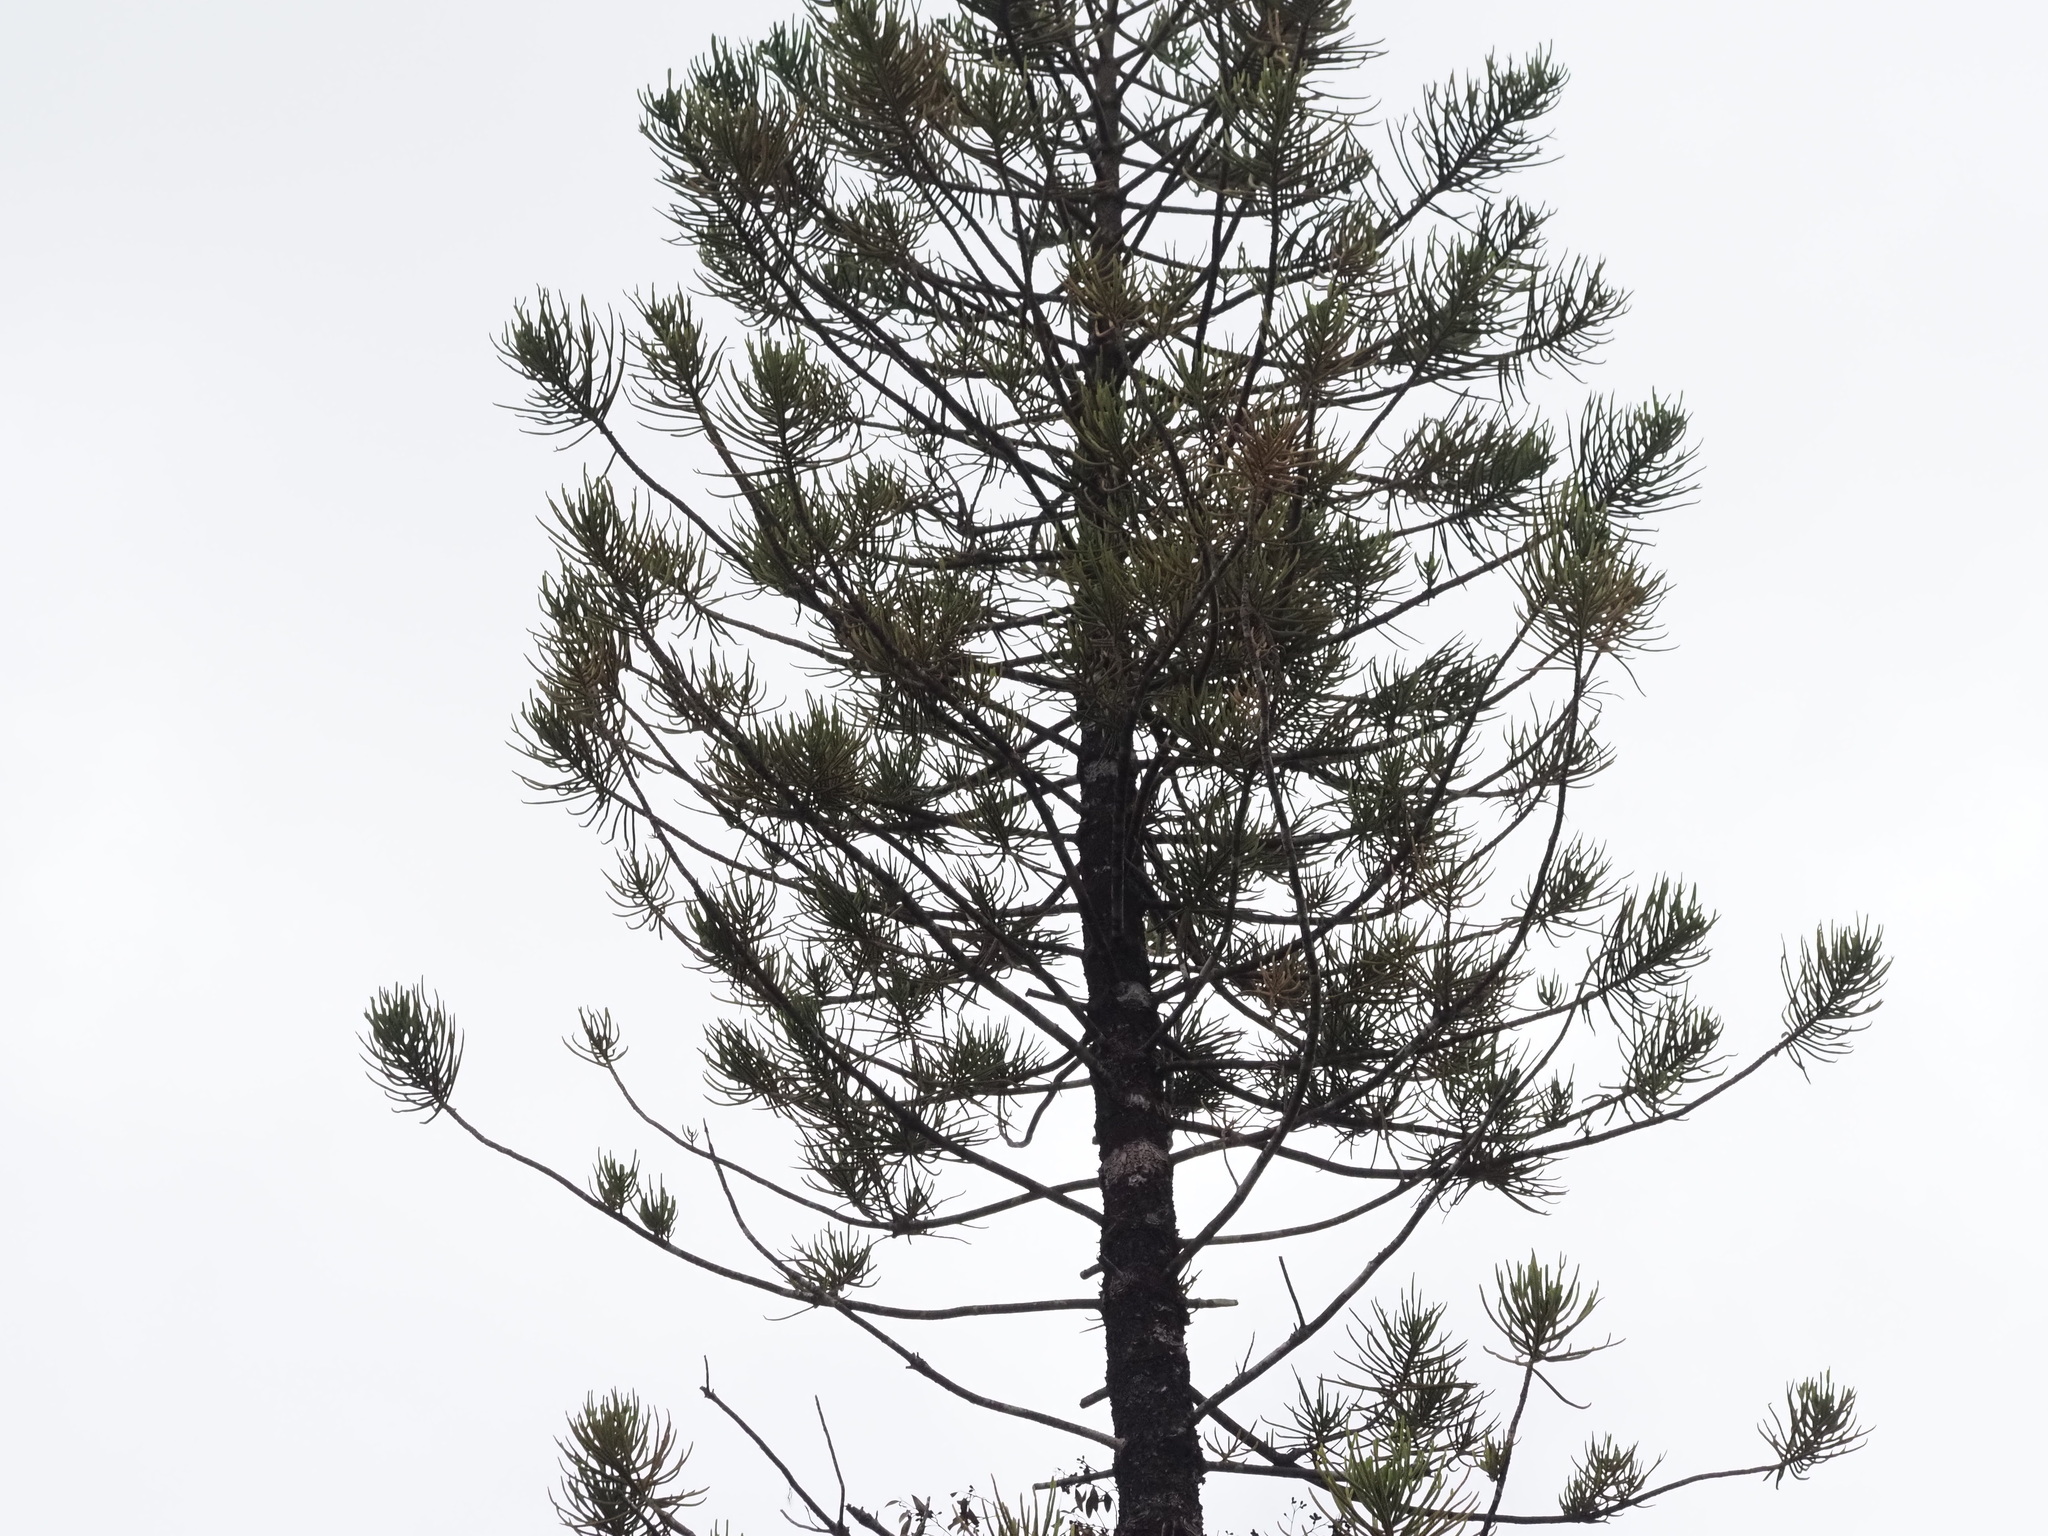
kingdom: Plantae
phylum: Tracheophyta
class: Pinopsida
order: Pinales
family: Araucariaceae
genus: Araucaria
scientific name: Araucaria columnaris
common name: Coral reef araucaria
